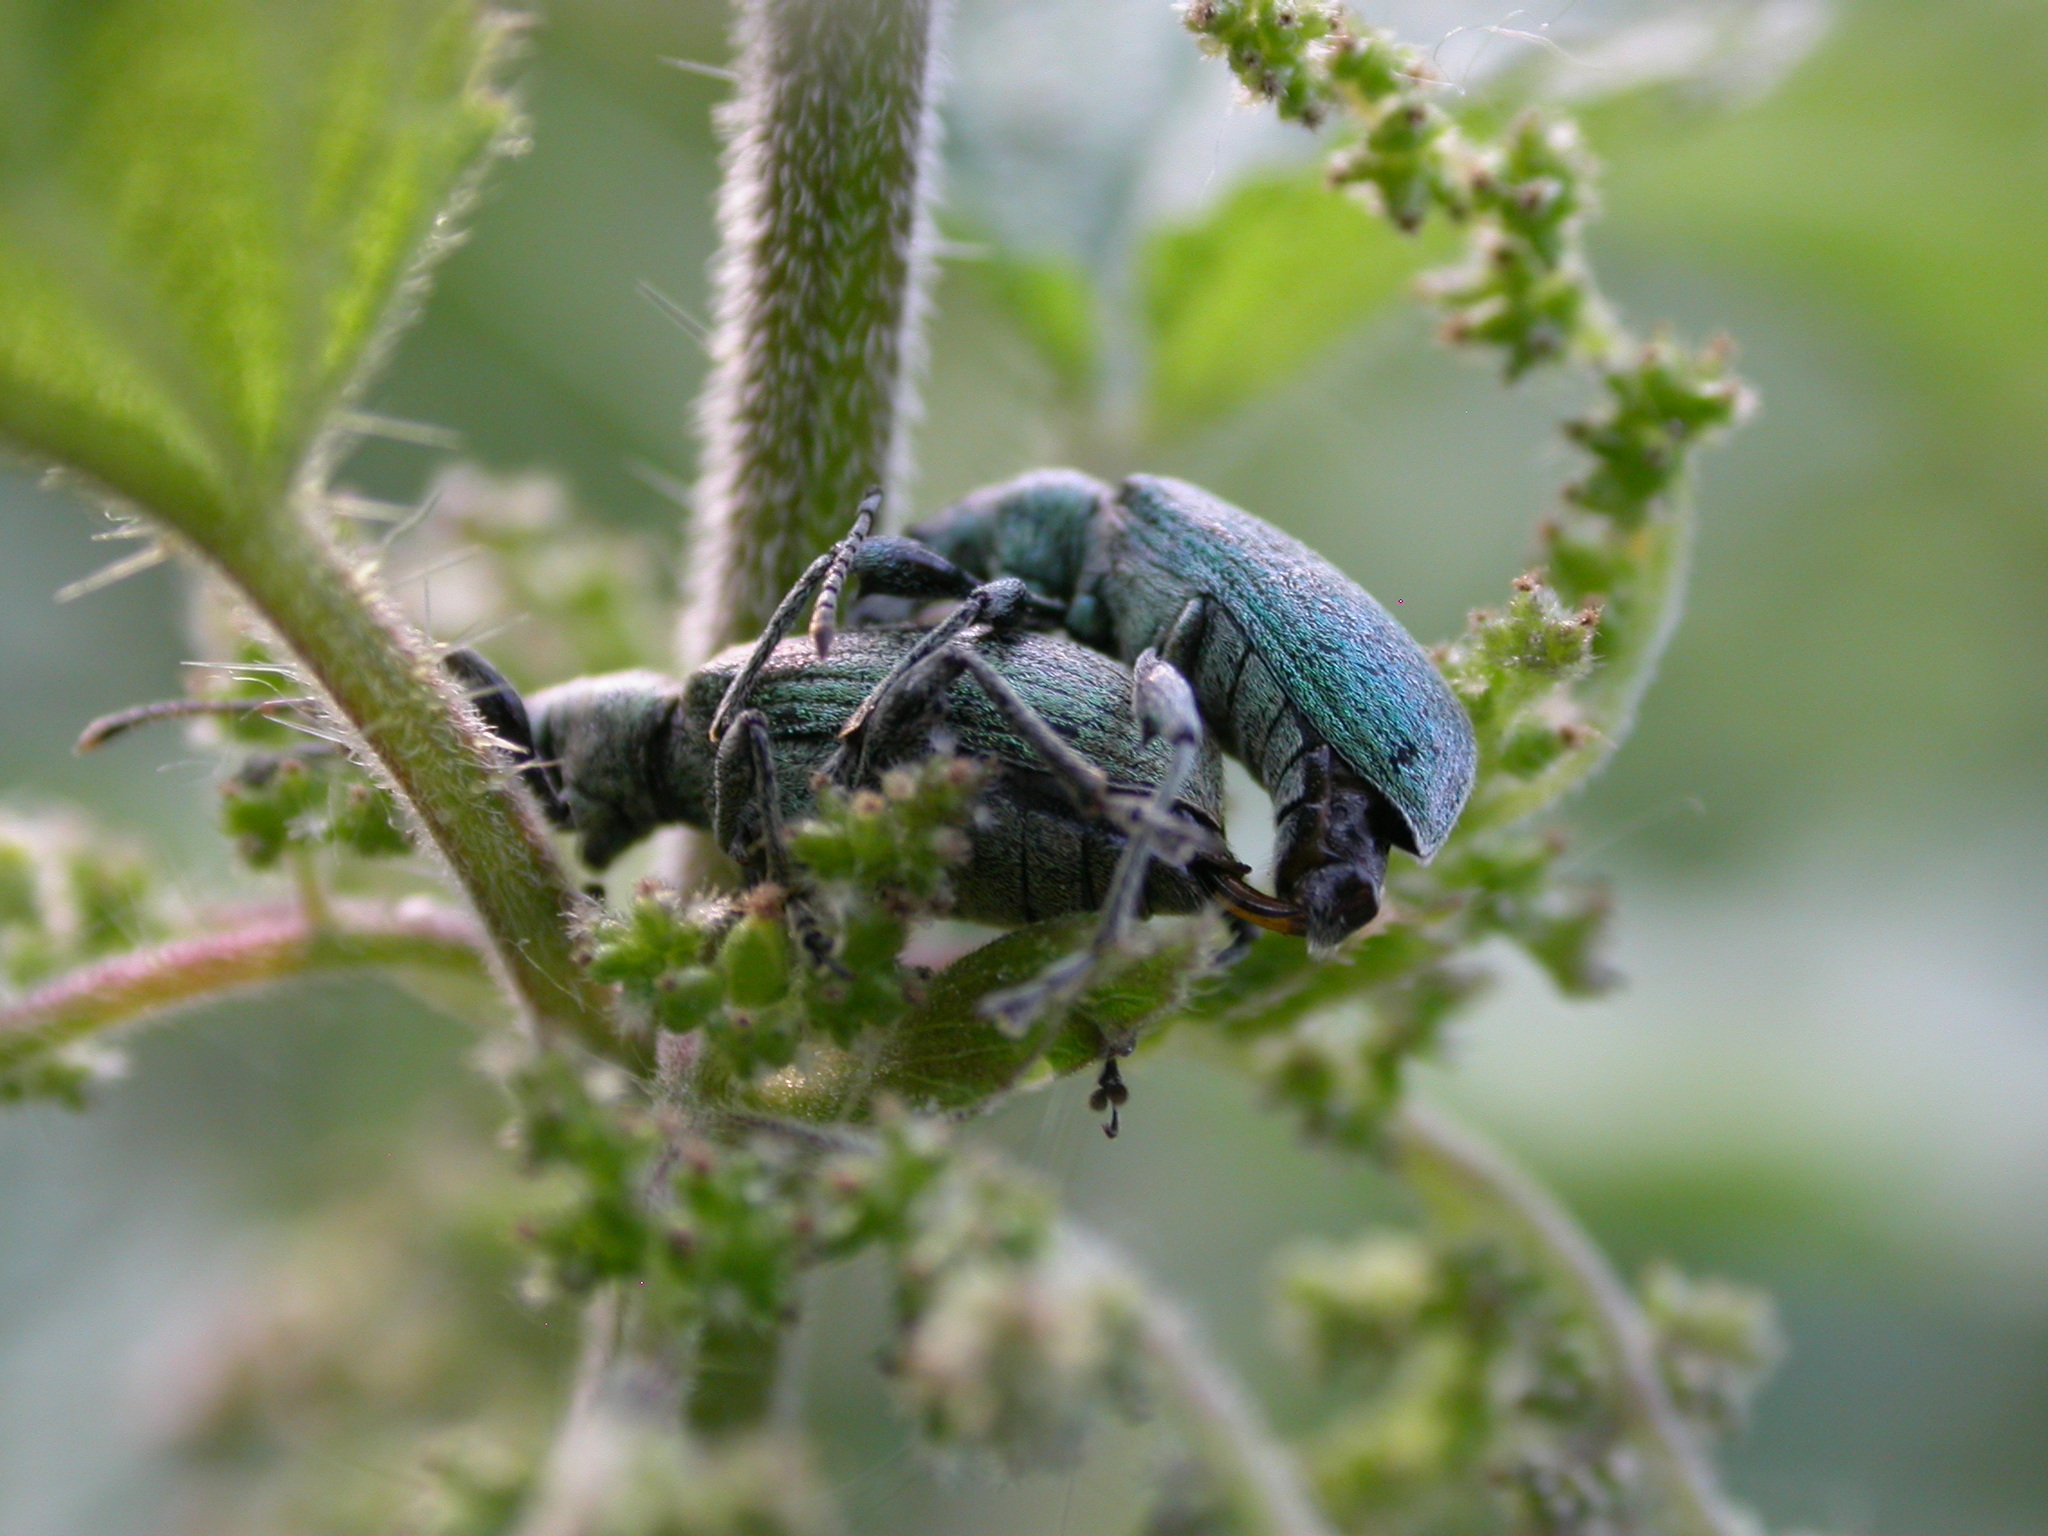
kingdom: Animalia
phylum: Arthropoda
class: Insecta
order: Coleoptera
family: Curculionidae
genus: Phyllobius
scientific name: Phyllobius pomaceus
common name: Green nettle weevil
